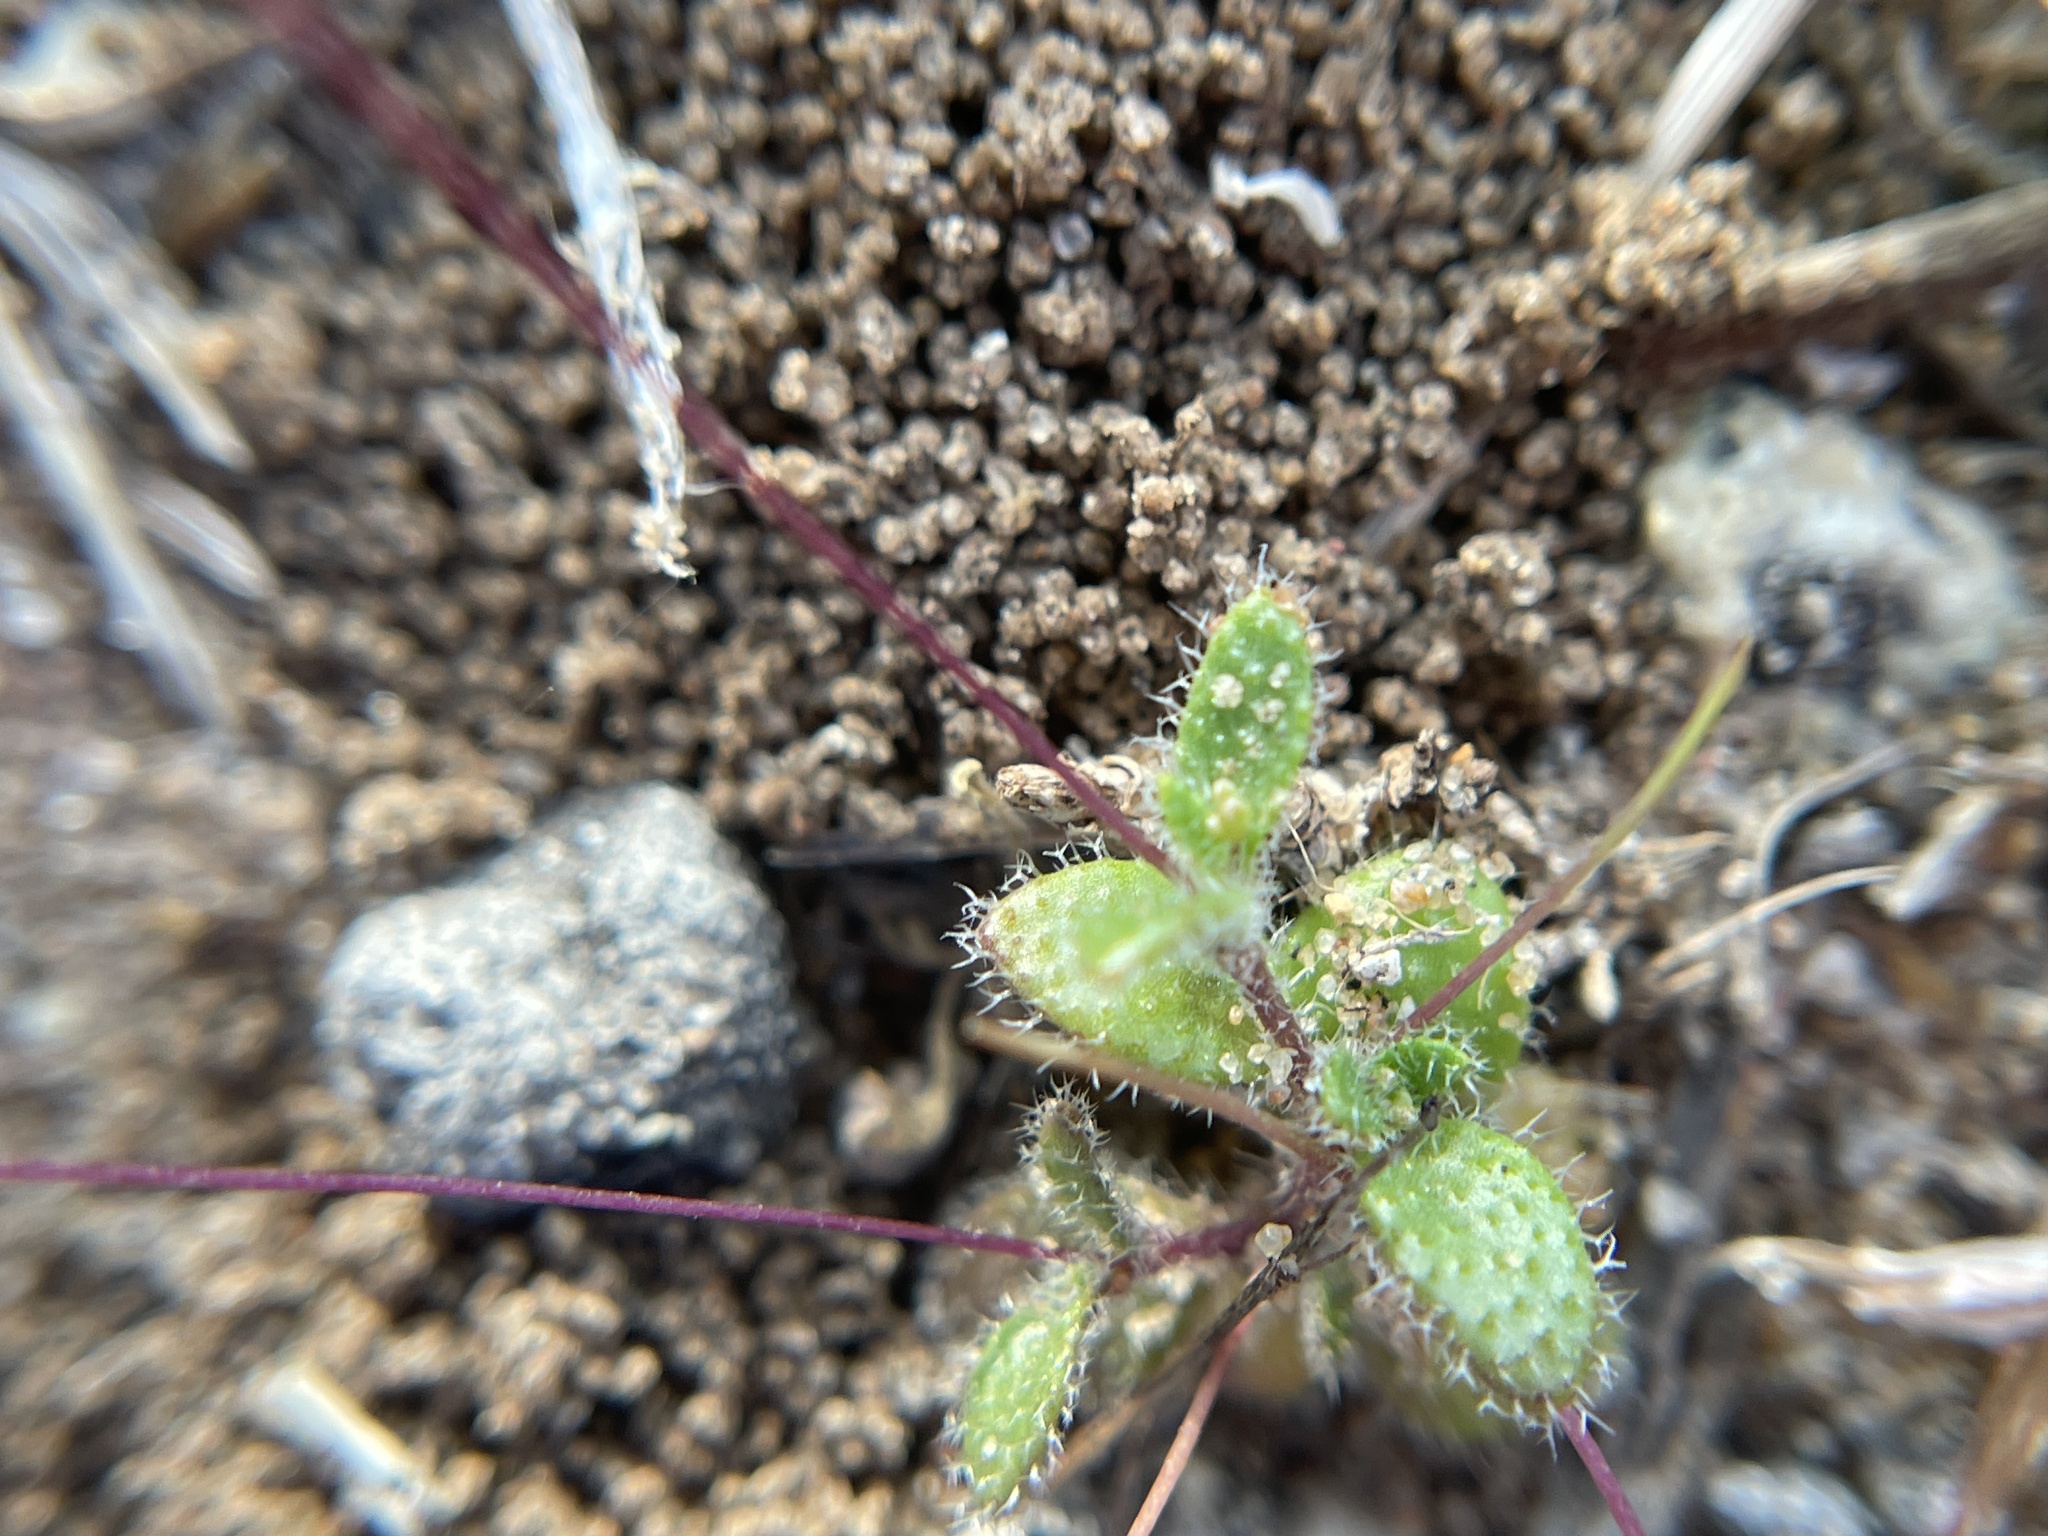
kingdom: Plantae
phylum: Tracheophyta
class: Magnoliopsida
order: Brassicales
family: Brassicaceae
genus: Tomostima
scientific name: Tomostima reptans
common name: Carolina draba
